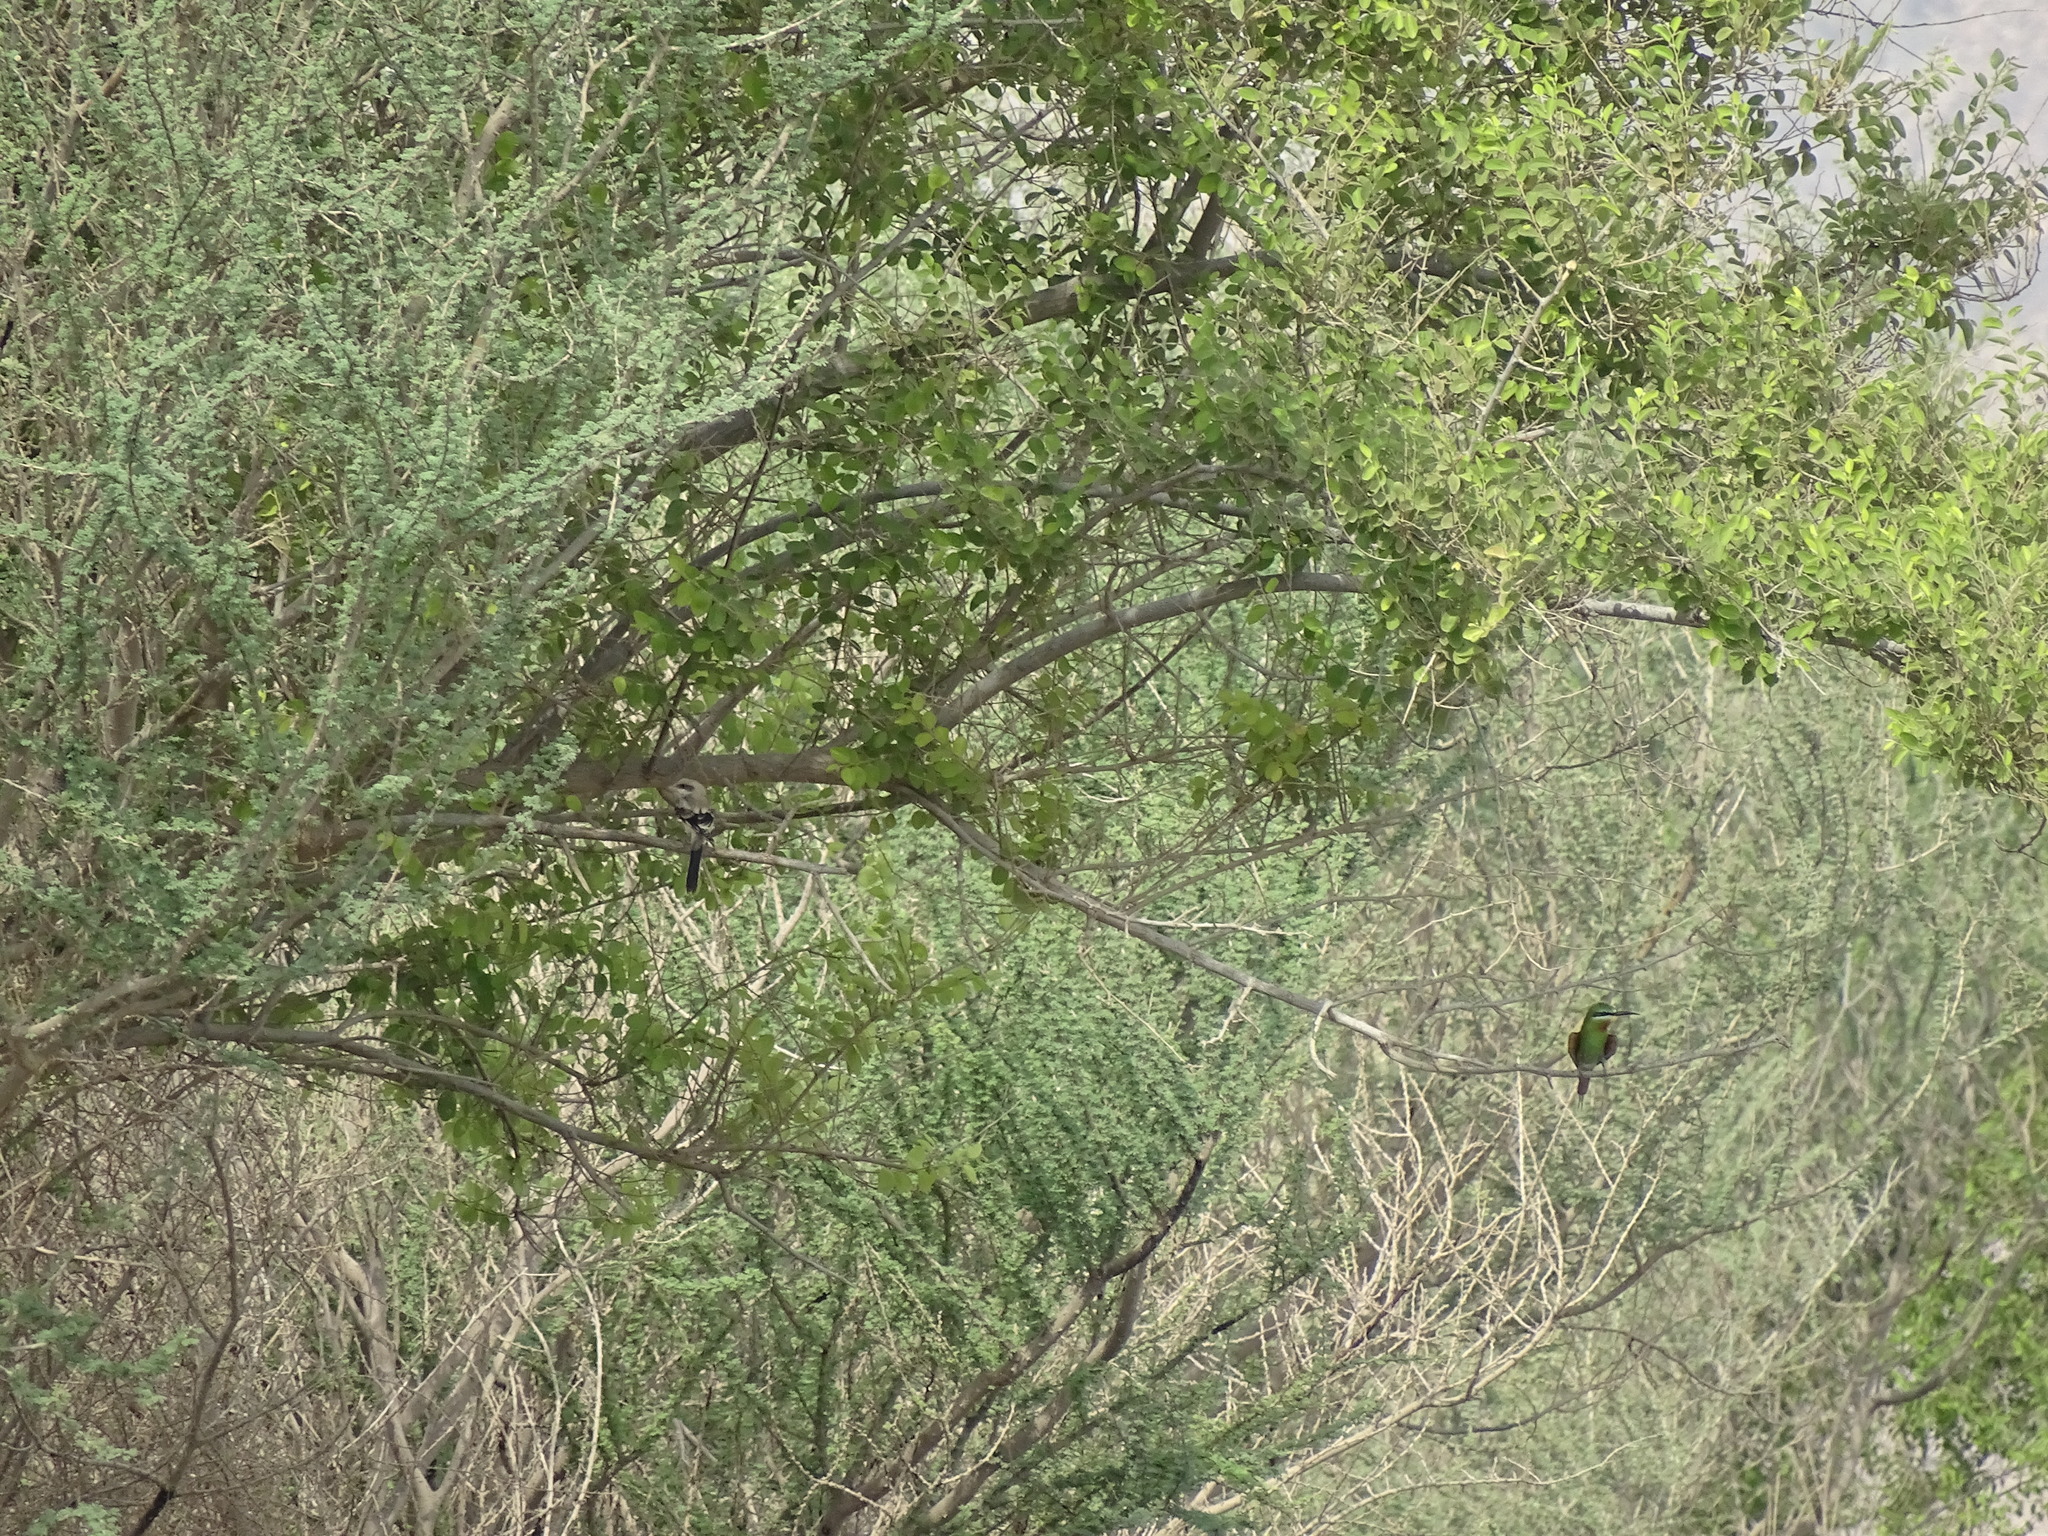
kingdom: Animalia
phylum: Chordata
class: Aves
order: Passeriformes
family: Laniidae
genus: Lanius
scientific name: Lanius excubitor
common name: Great grey shrike
